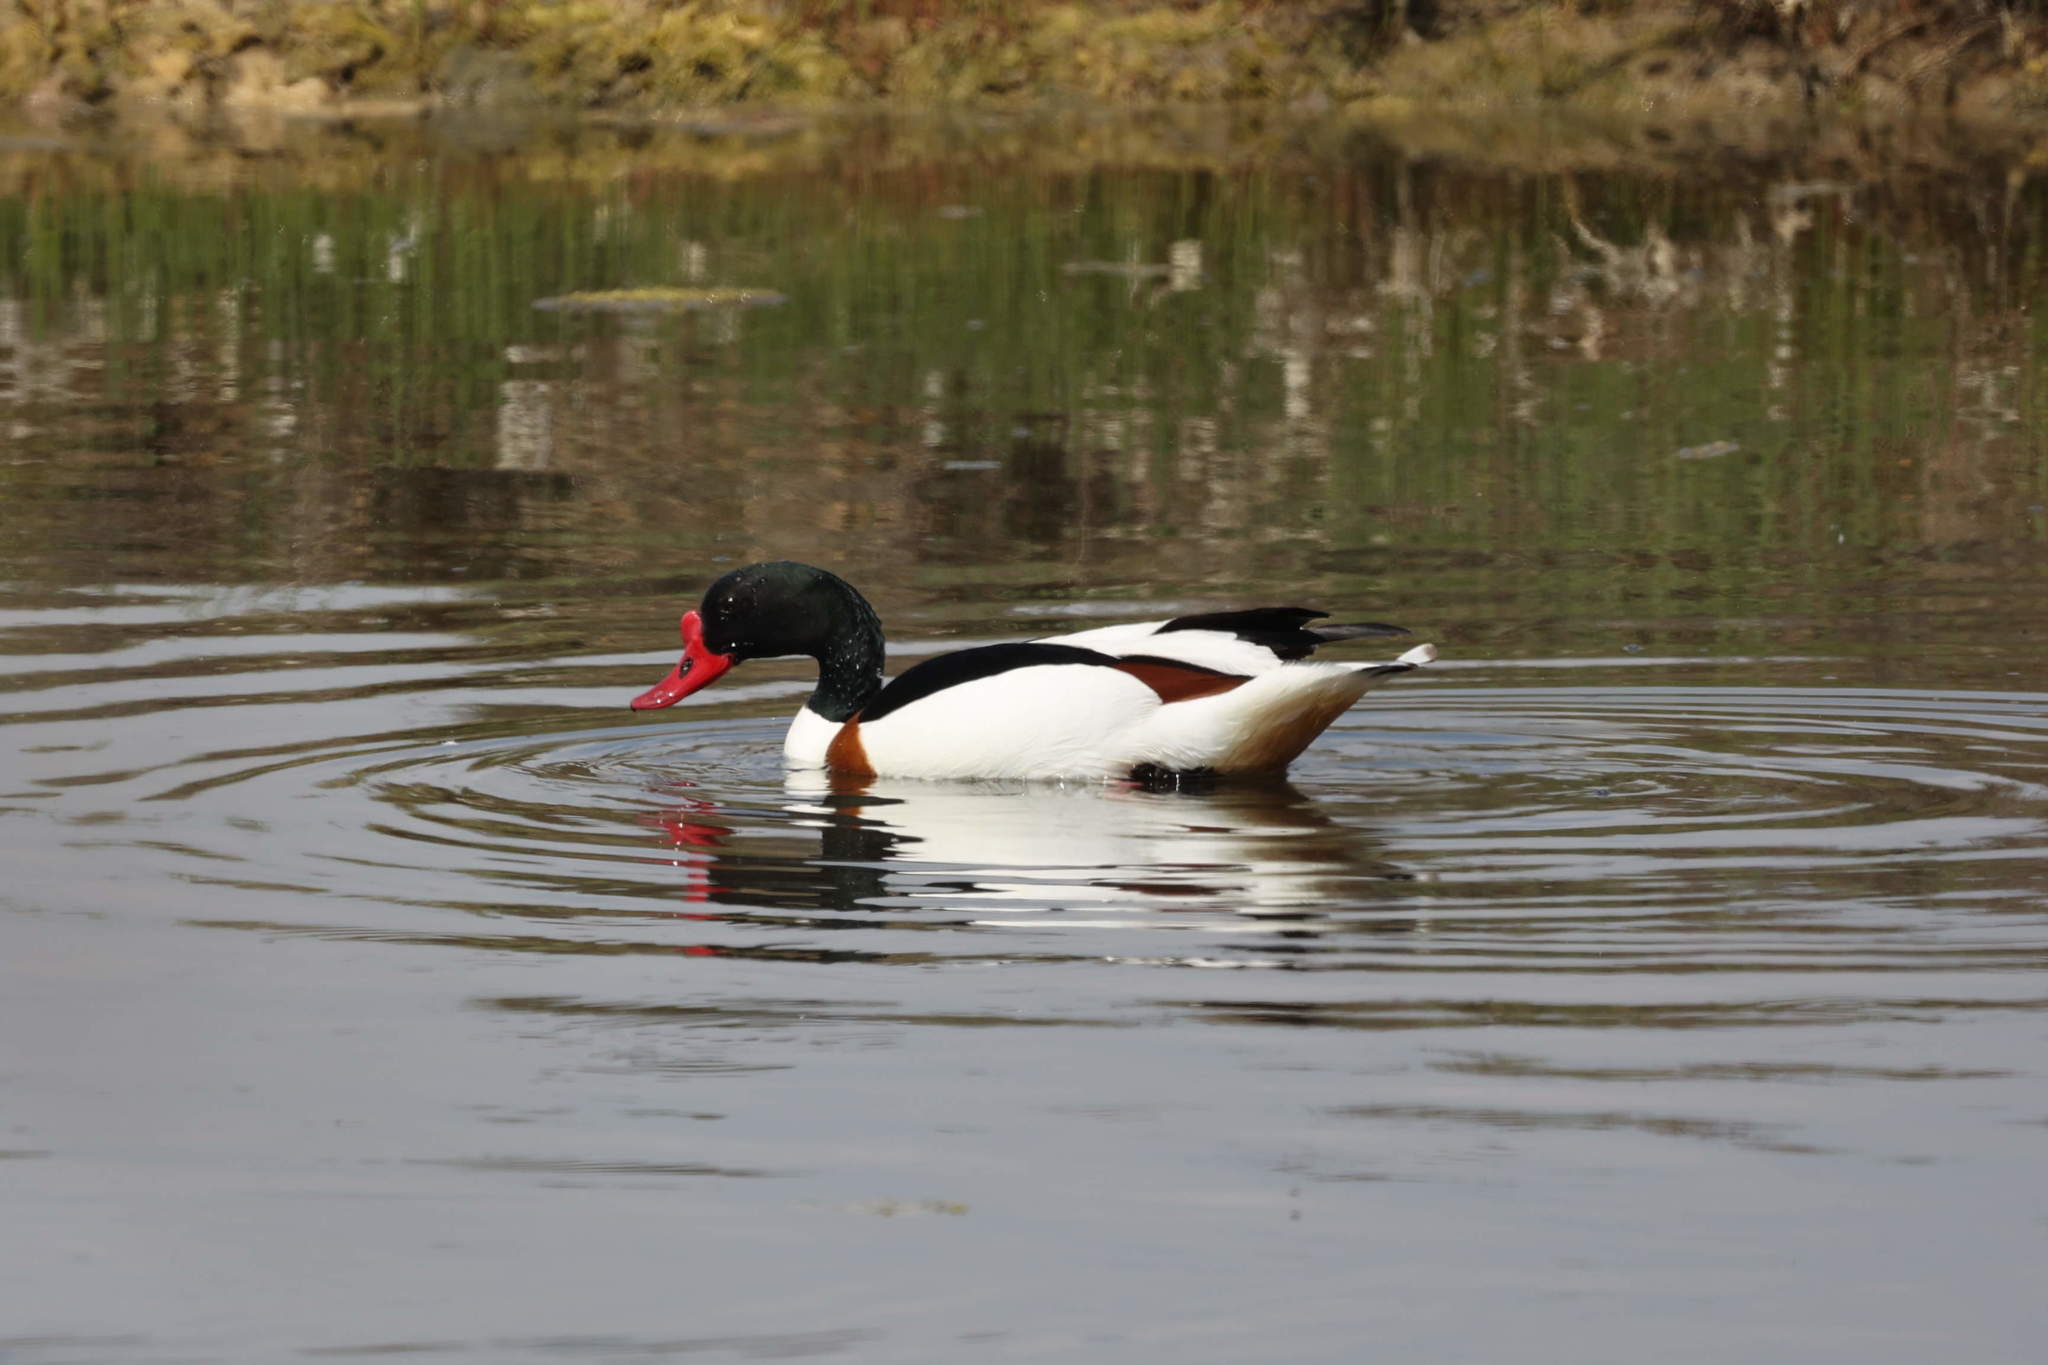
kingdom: Animalia
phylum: Chordata
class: Aves
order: Anseriformes
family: Anatidae
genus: Tadorna
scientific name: Tadorna tadorna
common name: Common shelduck
